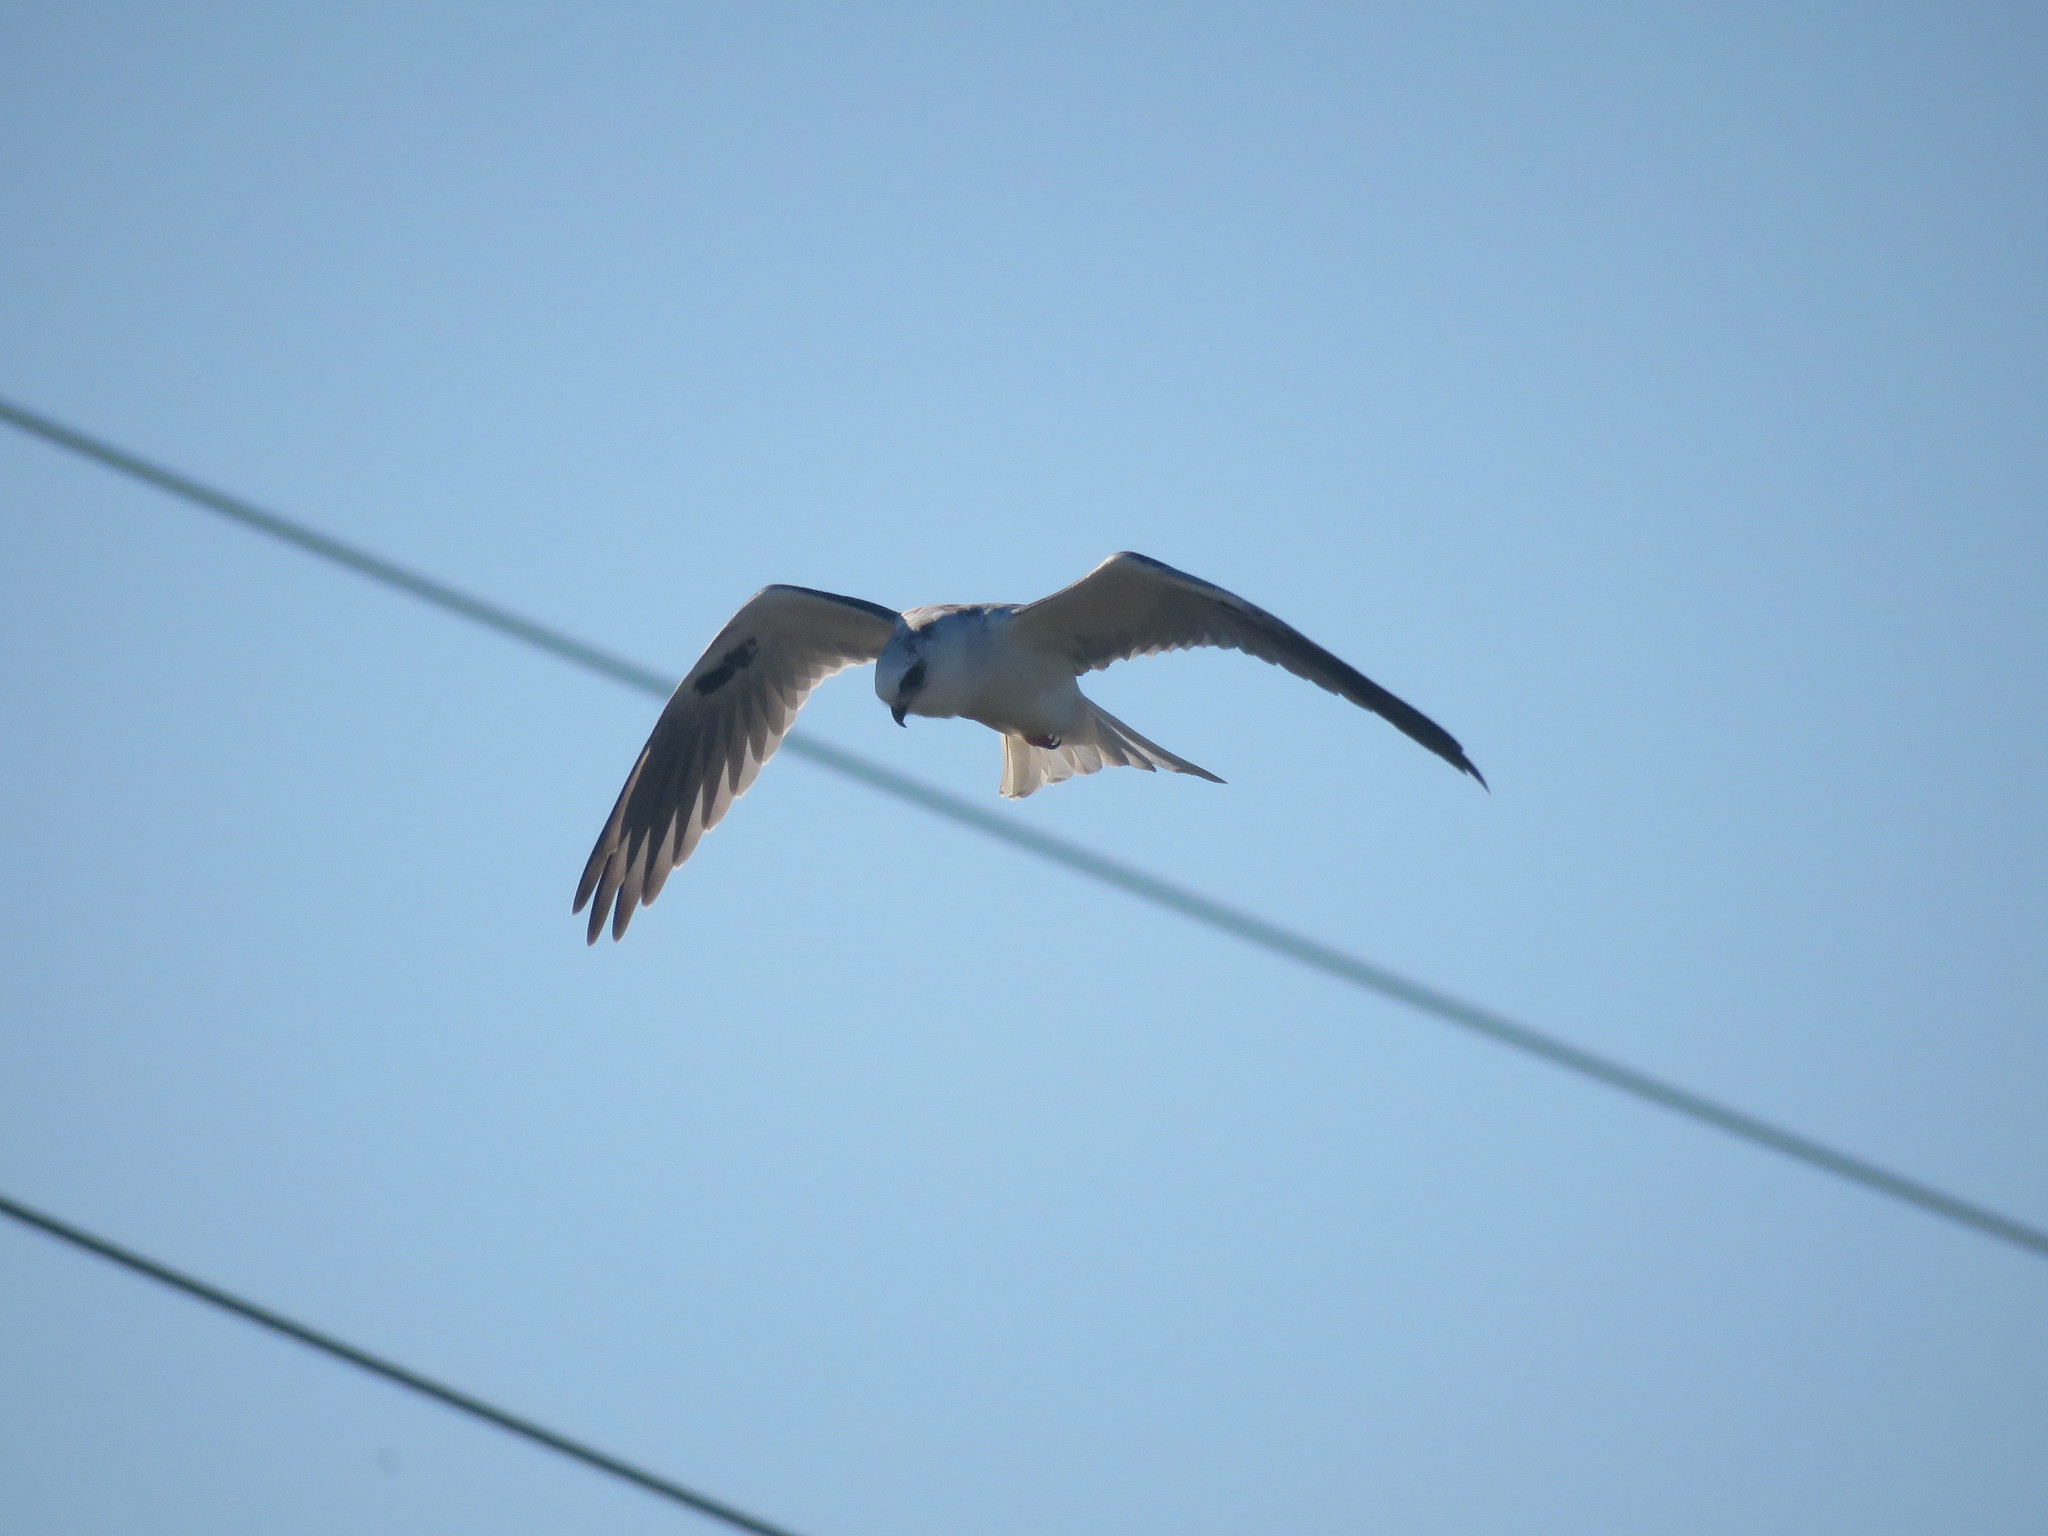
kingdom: Animalia
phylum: Chordata
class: Aves
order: Accipitriformes
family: Accipitridae
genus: Elanus
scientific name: Elanus leucurus
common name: White-tailed kite
